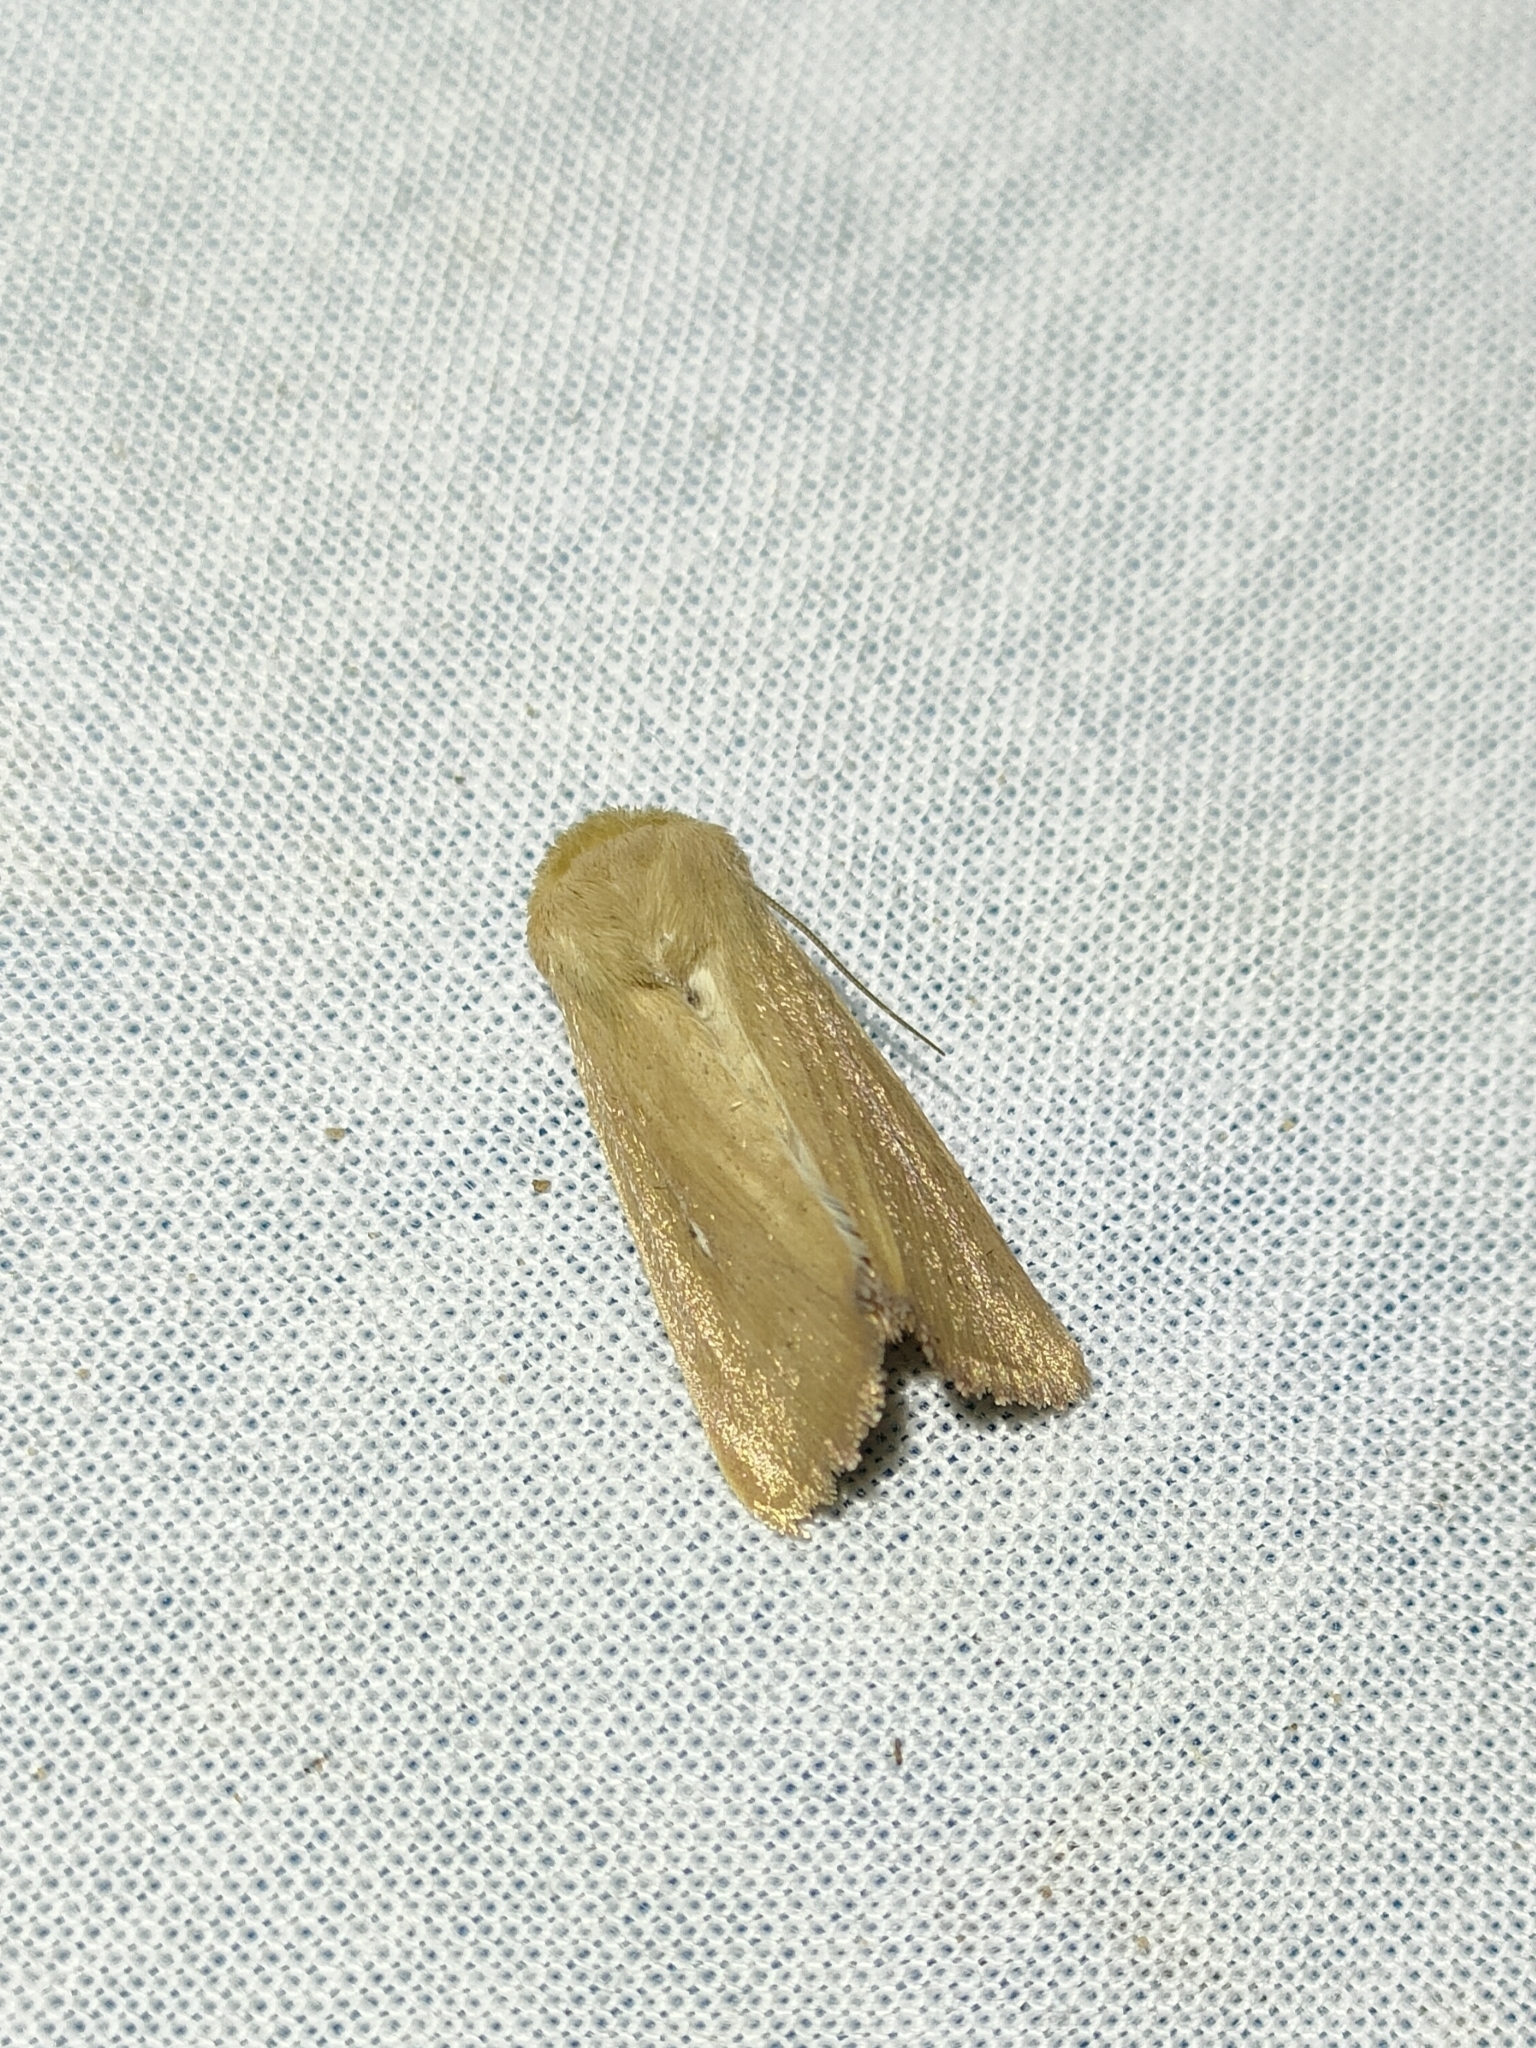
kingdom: Animalia
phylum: Arthropoda
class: Insecta
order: Lepidoptera
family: Noctuidae
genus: Mythimna
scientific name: Mythimna sicula
